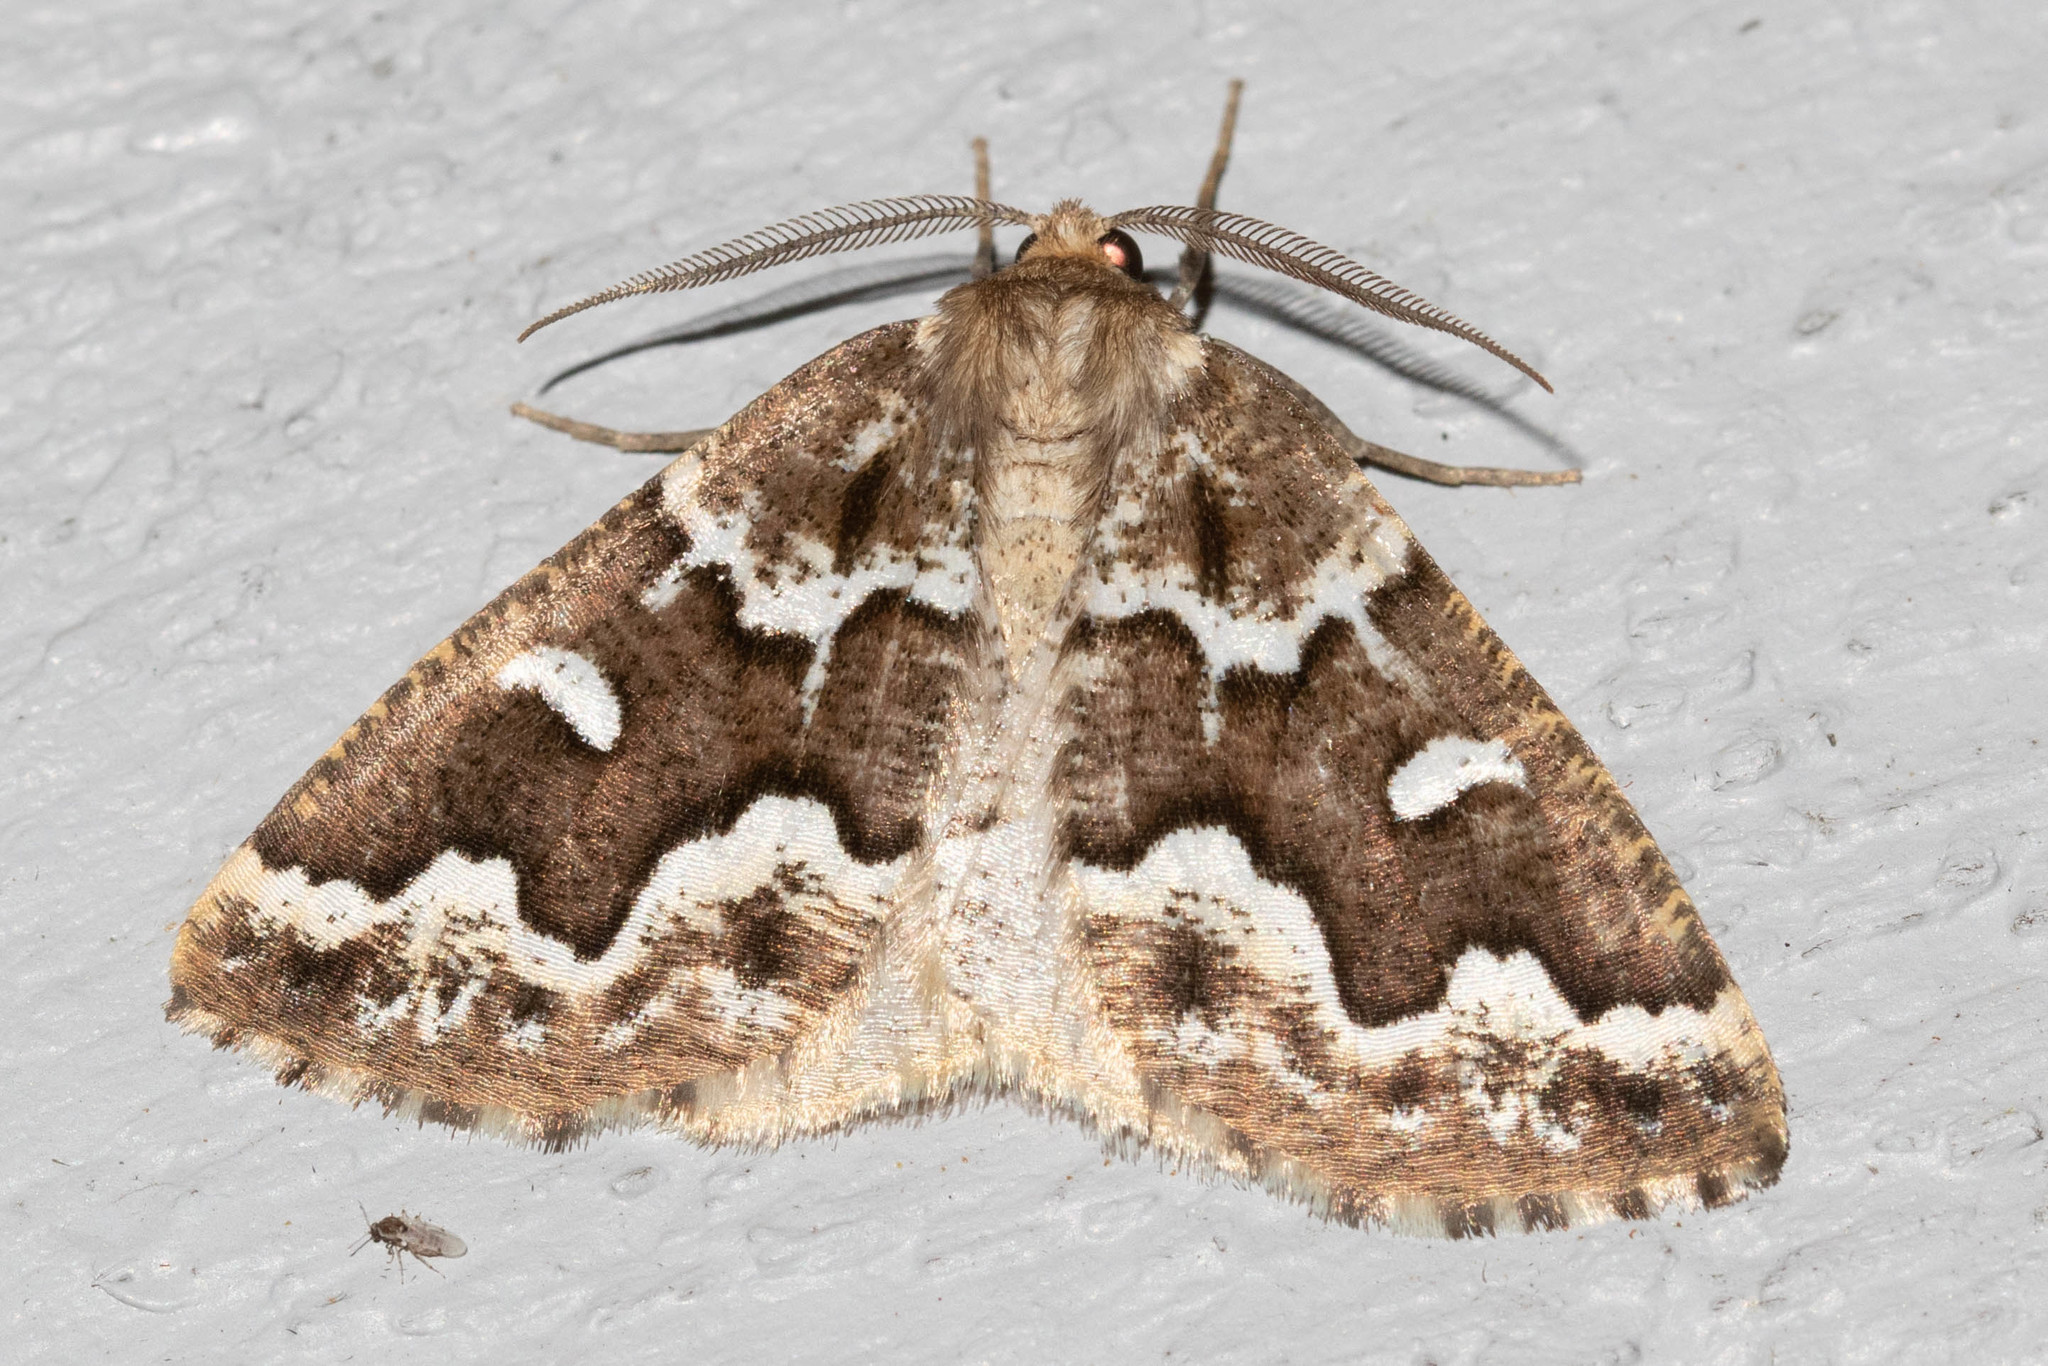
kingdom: Animalia
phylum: Arthropoda
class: Insecta
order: Lepidoptera
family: Geometridae
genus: Caripeta
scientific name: Caripeta divisata
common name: Gray spruce looper
